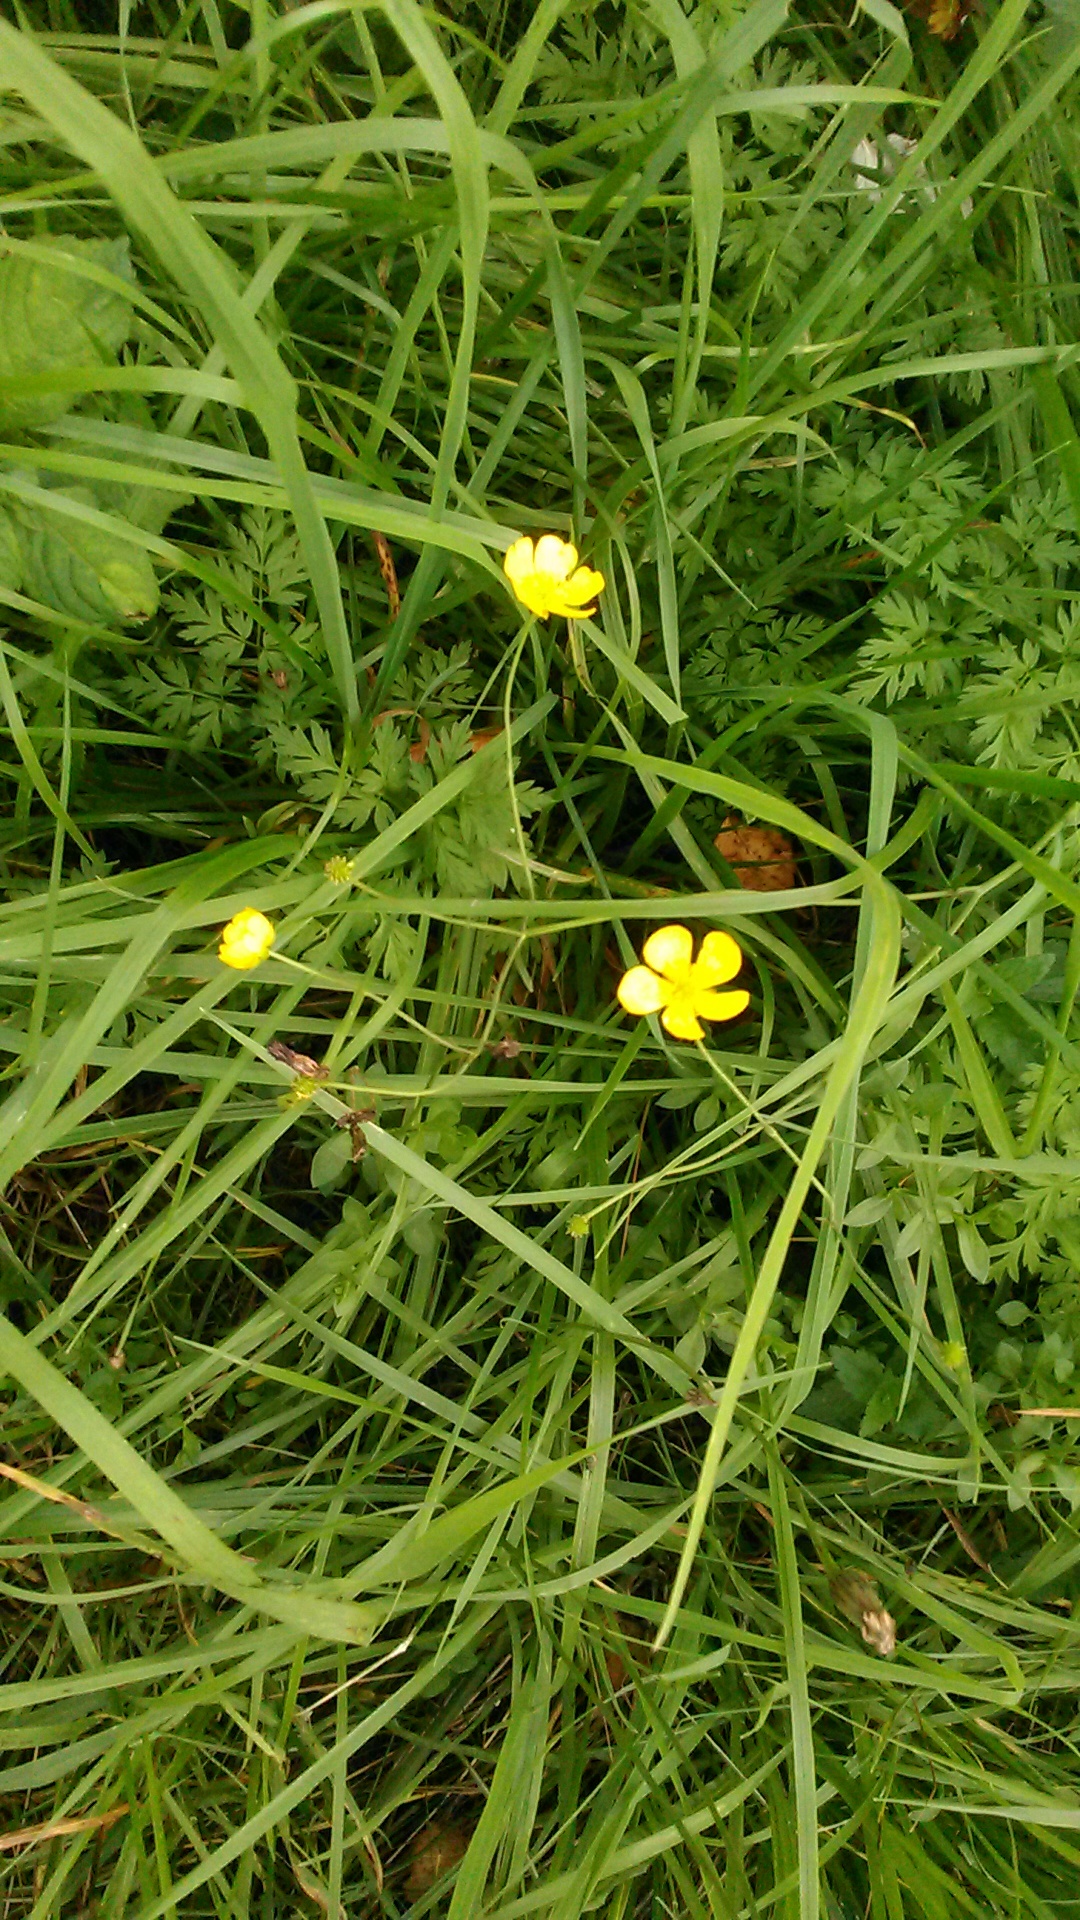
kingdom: Plantae
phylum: Tracheophyta
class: Magnoliopsida
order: Ranunculales
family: Ranunculaceae
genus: Ranunculus
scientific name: Ranunculus acris
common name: Meadow buttercup
